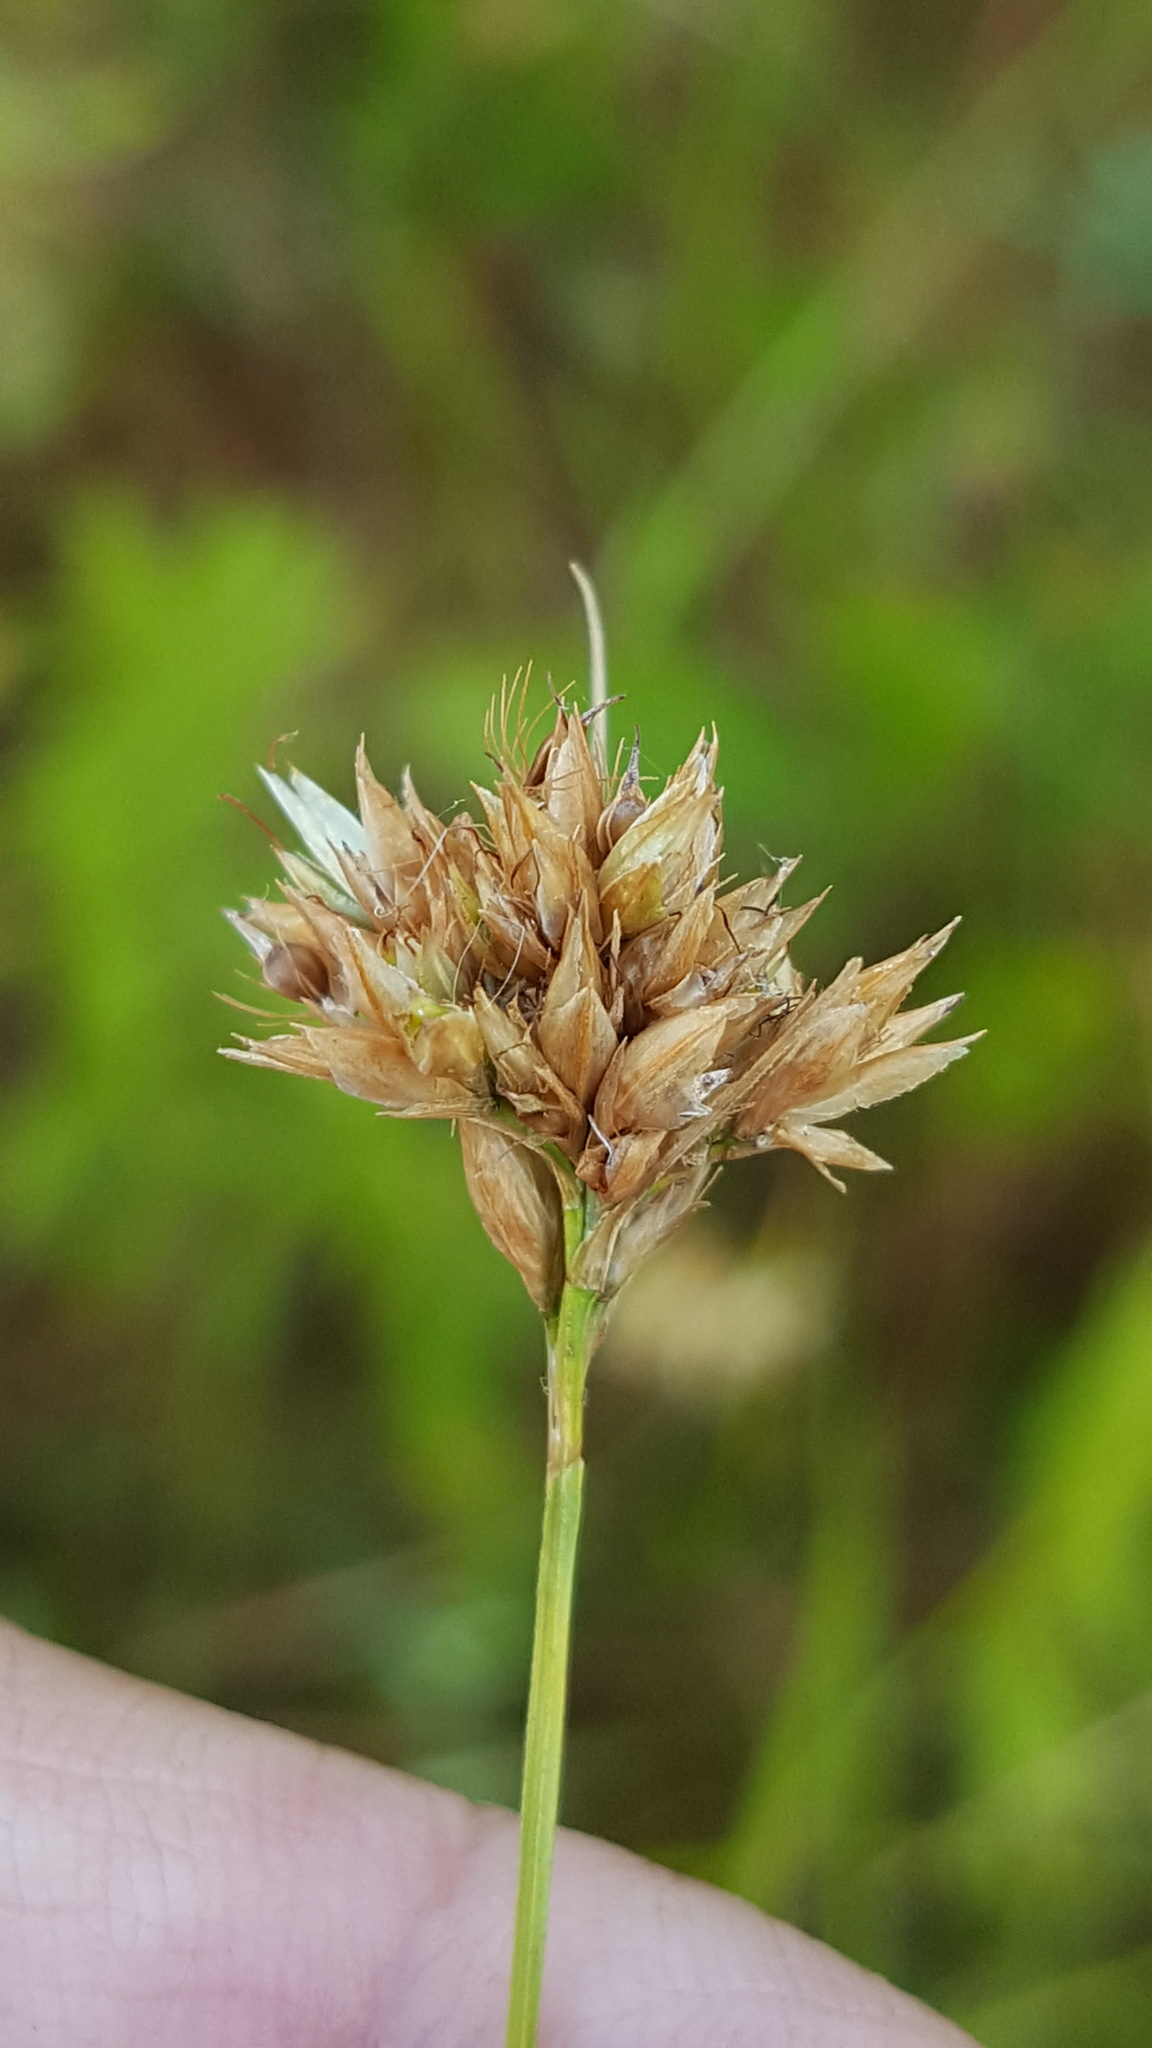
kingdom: Plantae
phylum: Tracheophyta
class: Liliopsida
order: Poales
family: Cyperaceae
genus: Rhynchospora
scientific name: Rhynchospora alba
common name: White beak-sedge
